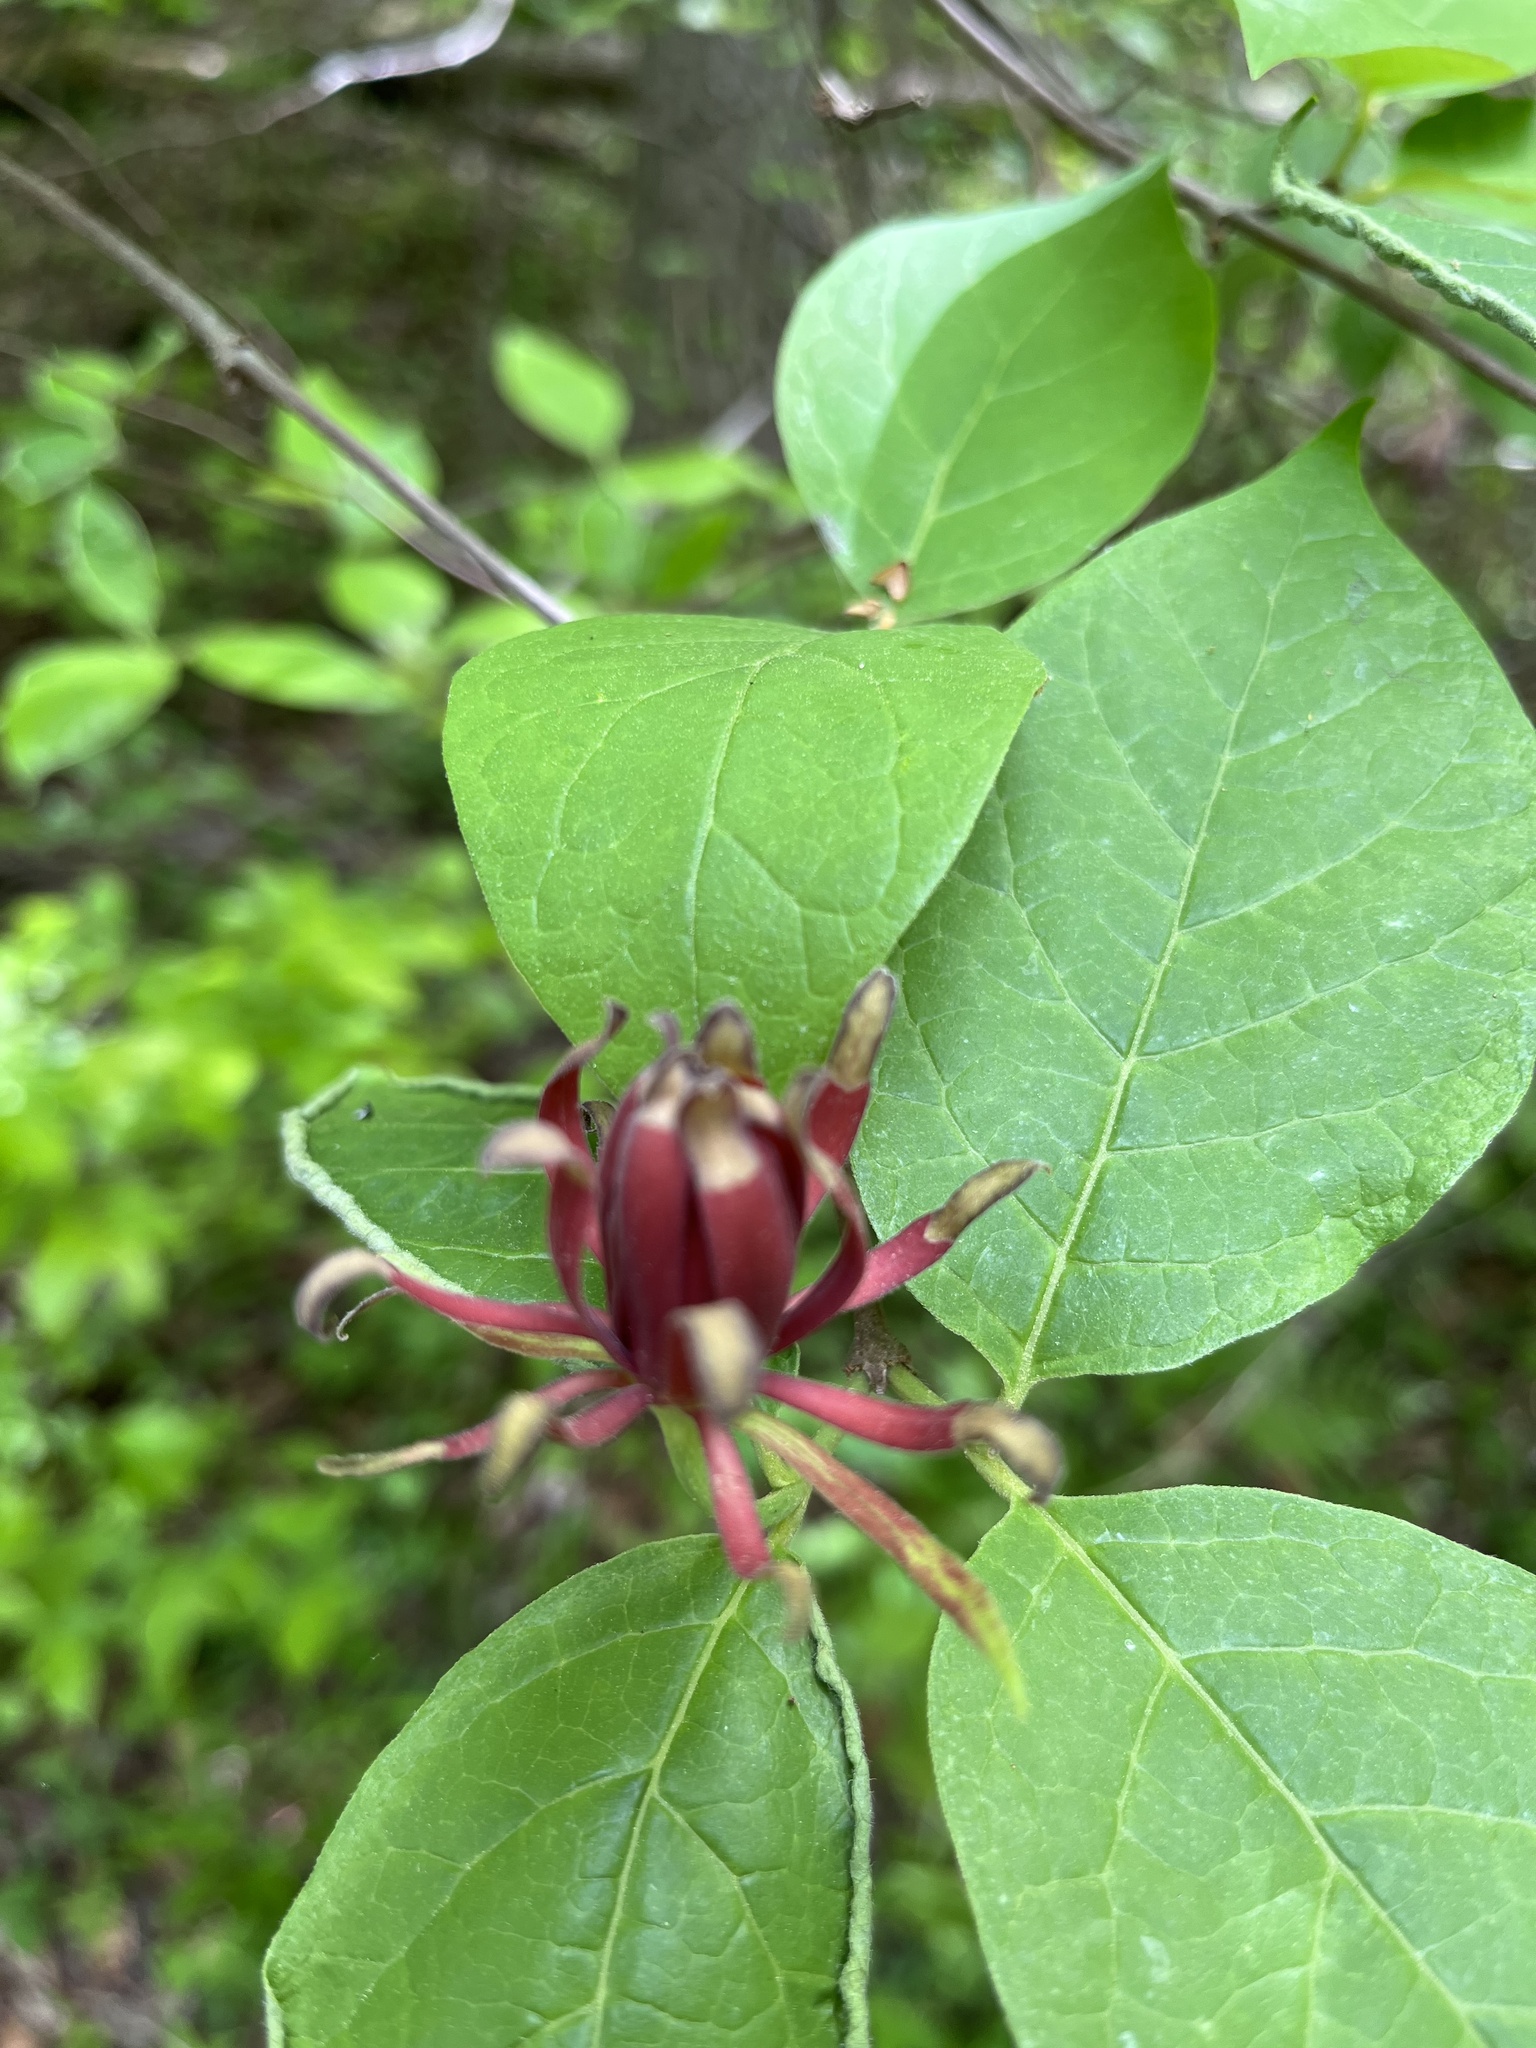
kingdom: Plantae
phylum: Tracheophyta
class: Magnoliopsida
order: Laurales
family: Calycanthaceae
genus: Calycanthus
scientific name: Calycanthus floridus
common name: Carolina-allspice
